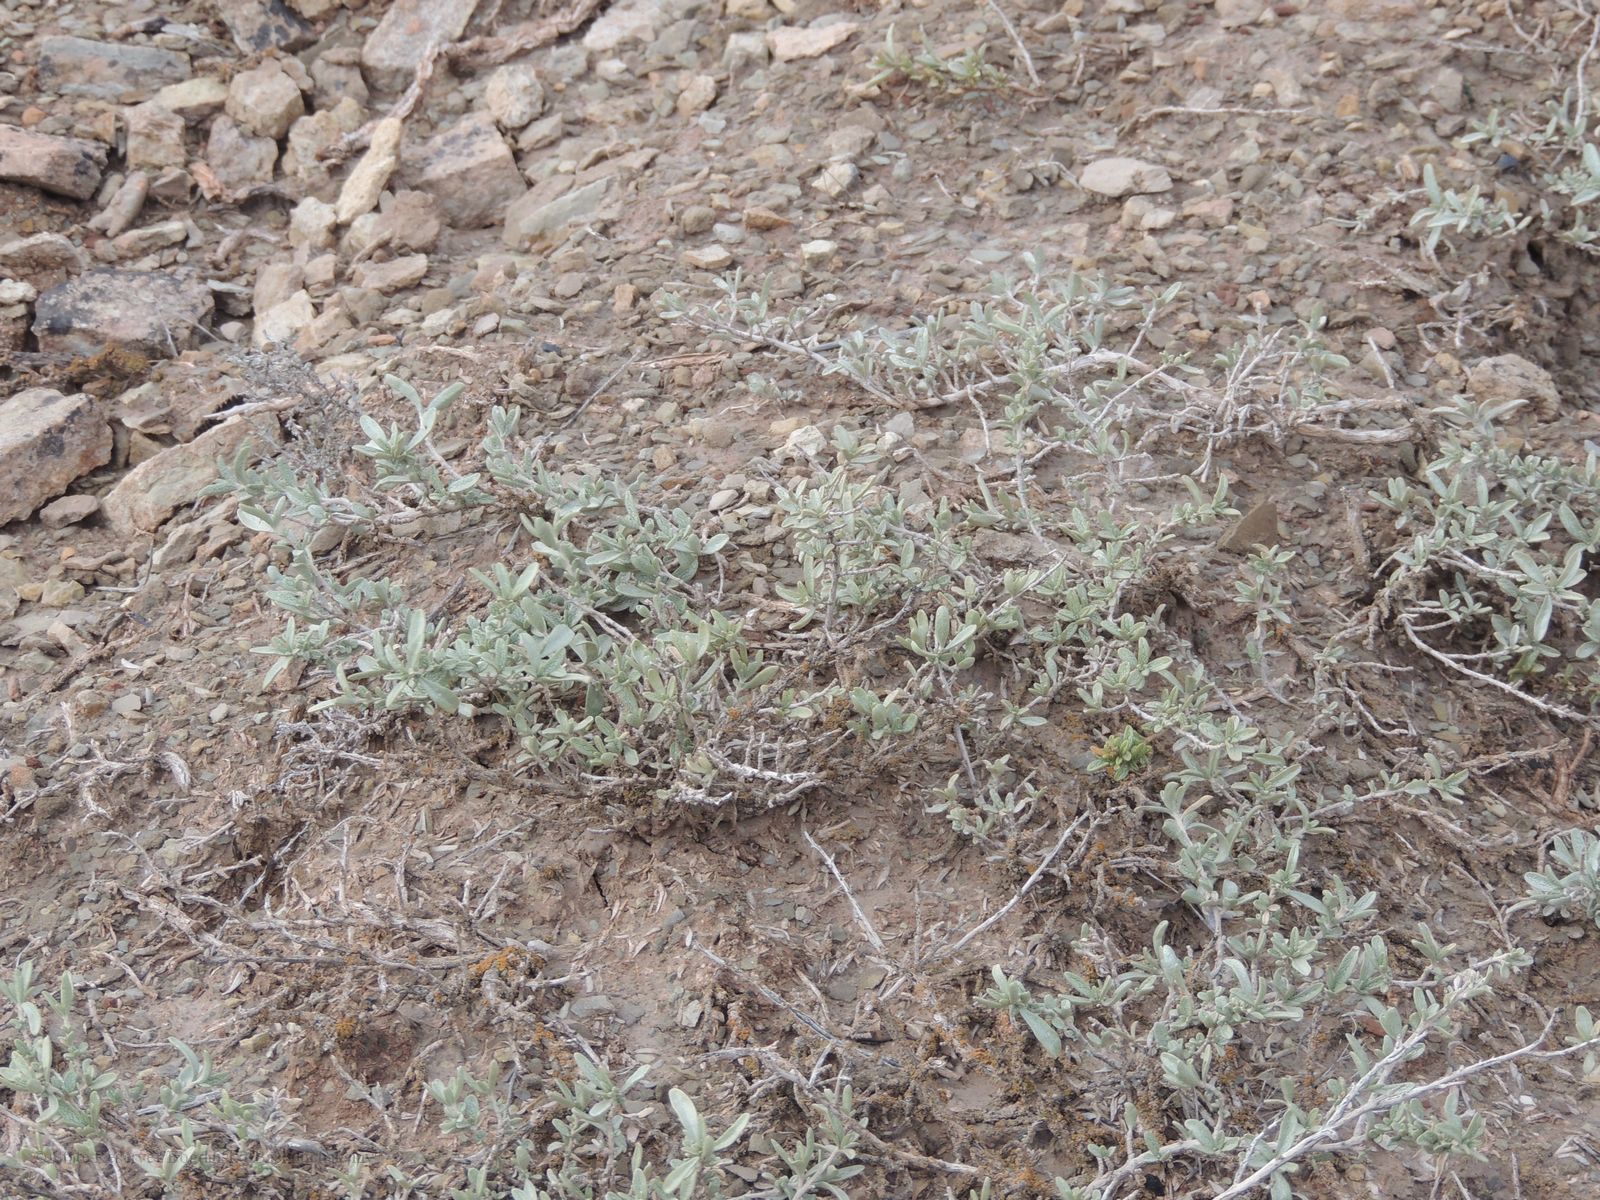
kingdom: Plantae
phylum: Tracheophyta
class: Magnoliopsida
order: Caryophyllales
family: Amaranthaceae
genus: Atriplex
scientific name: Atriplex cana
